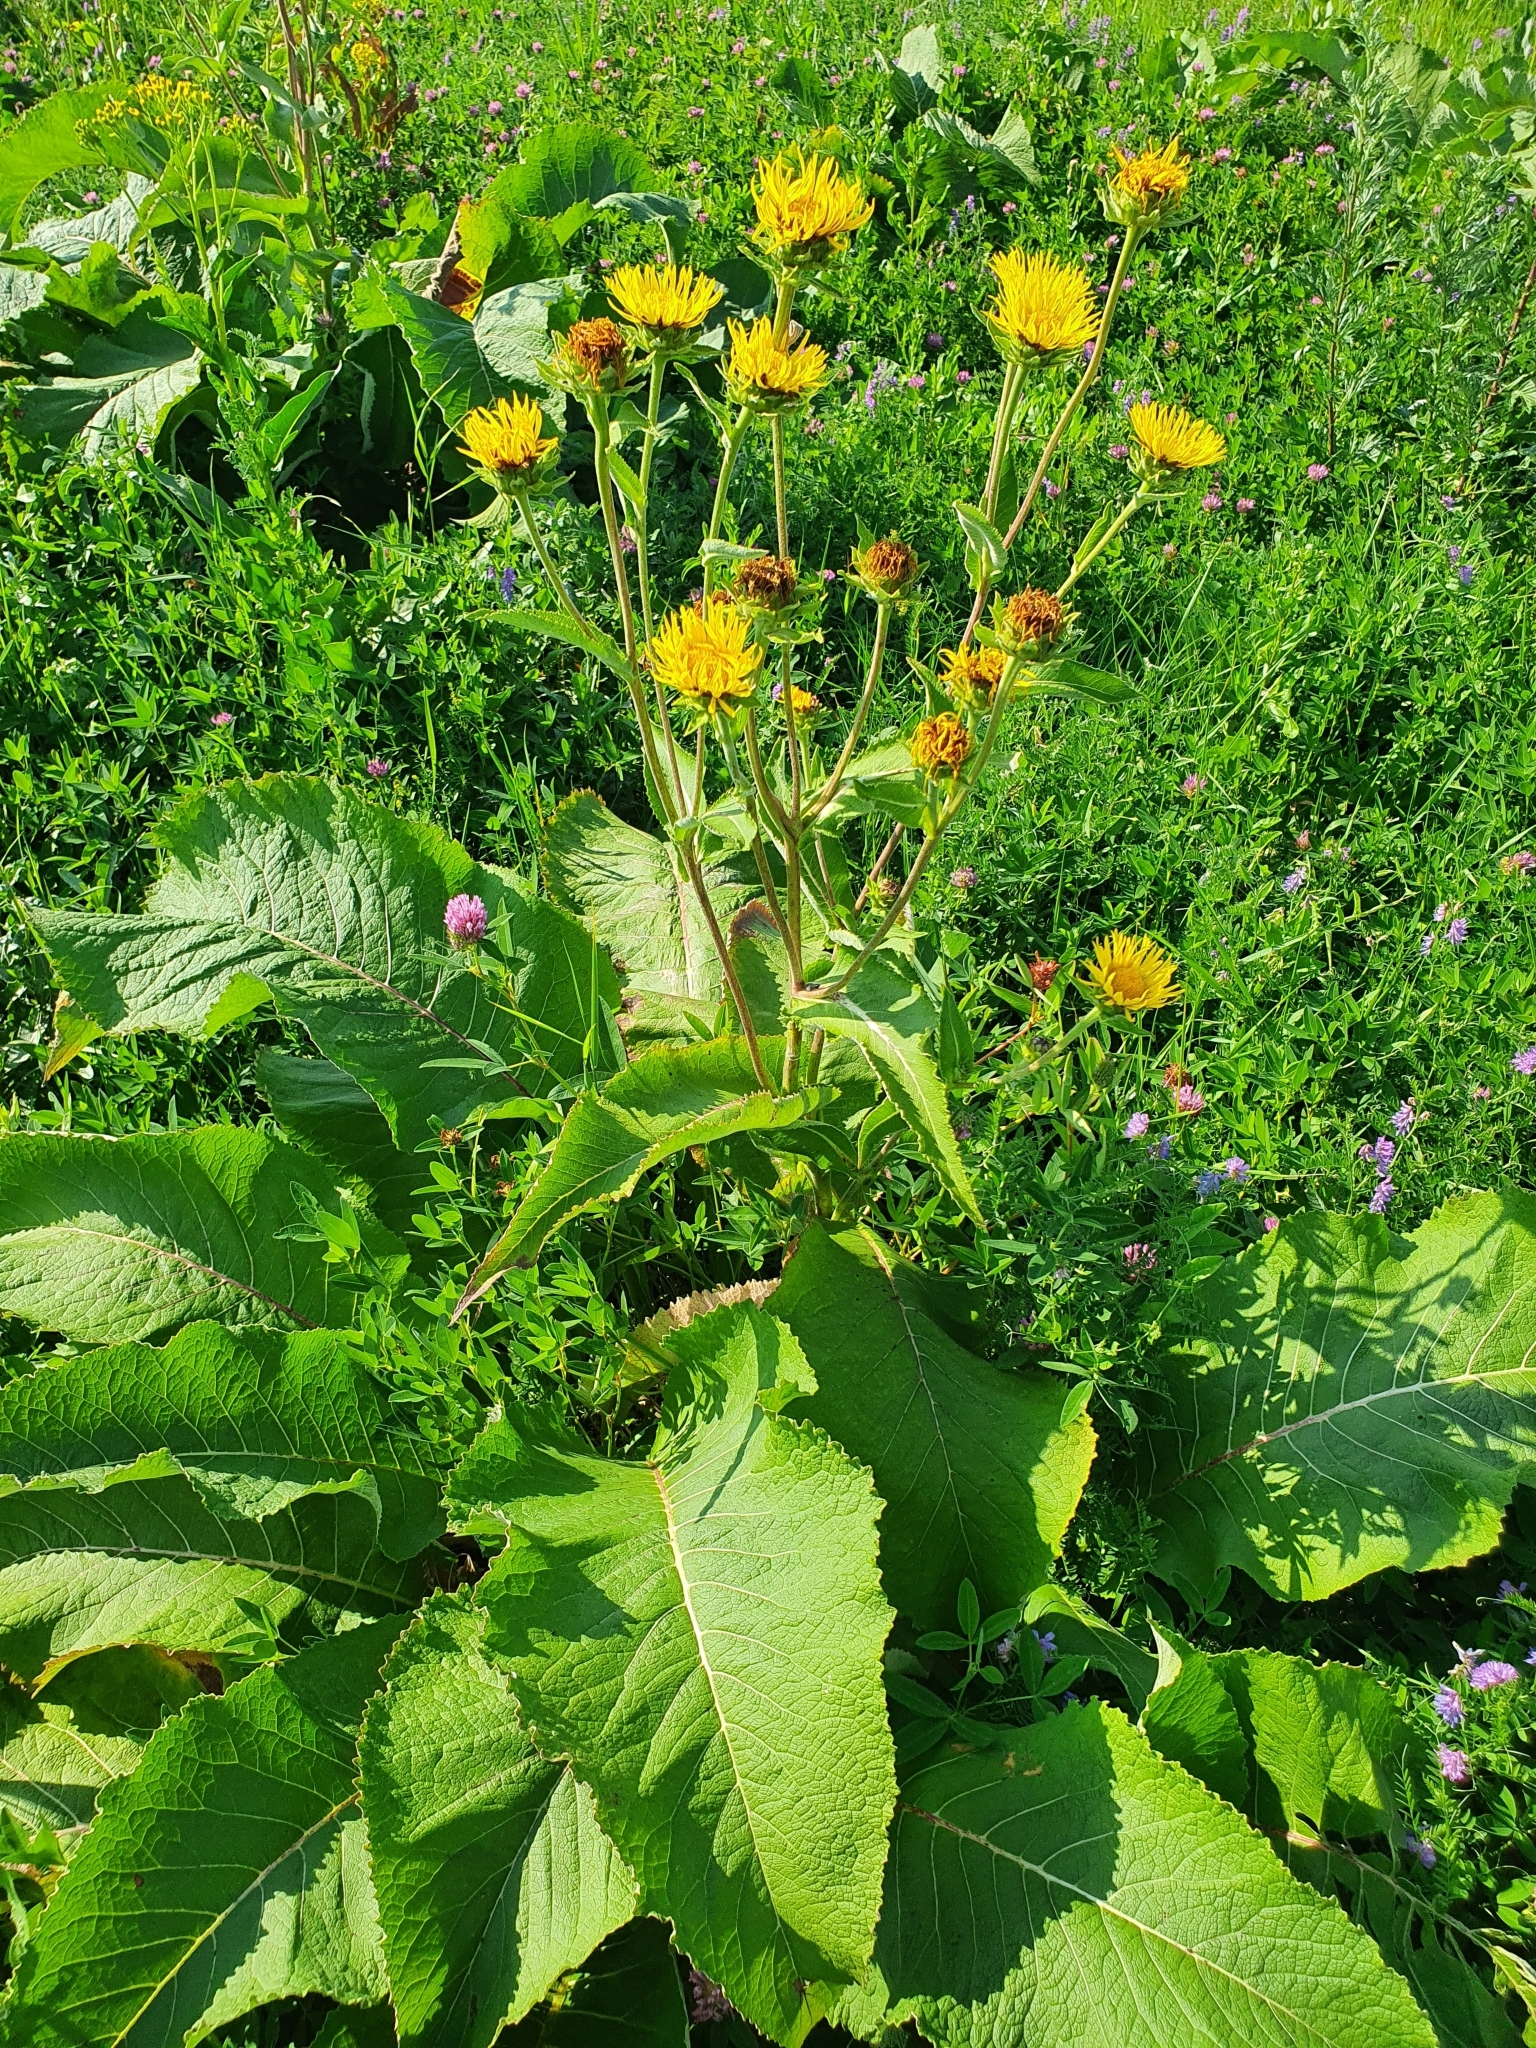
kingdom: Plantae
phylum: Tracheophyta
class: Magnoliopsida
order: Asterales
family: Asteraceae
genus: Inula
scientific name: Inula helenium
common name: Elecampane
